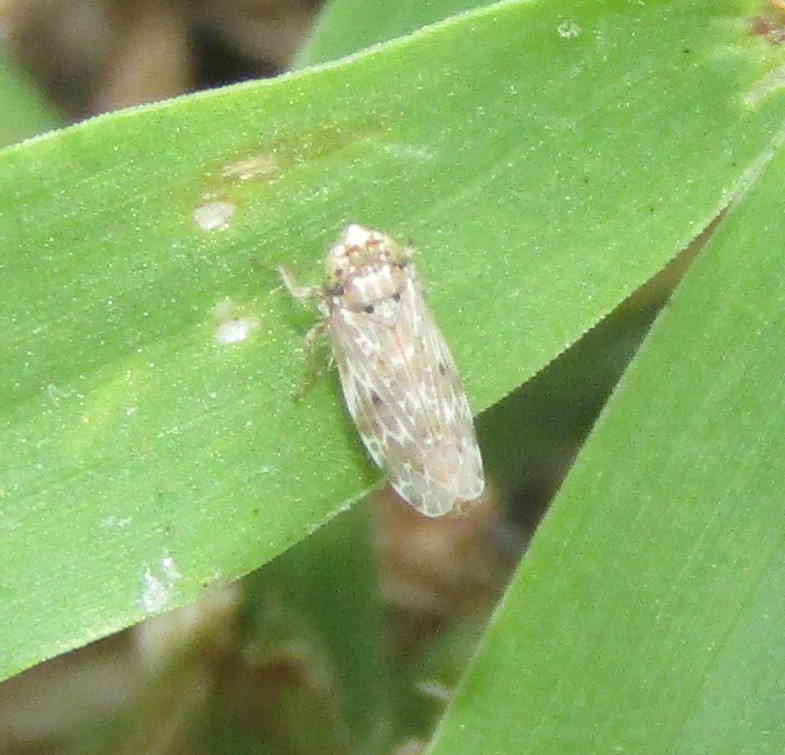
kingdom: Animalia
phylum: Arthropoda
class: Insecta
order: Hemiptera
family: Cicadellidae
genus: Polyamia
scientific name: Polyamia obtecta
